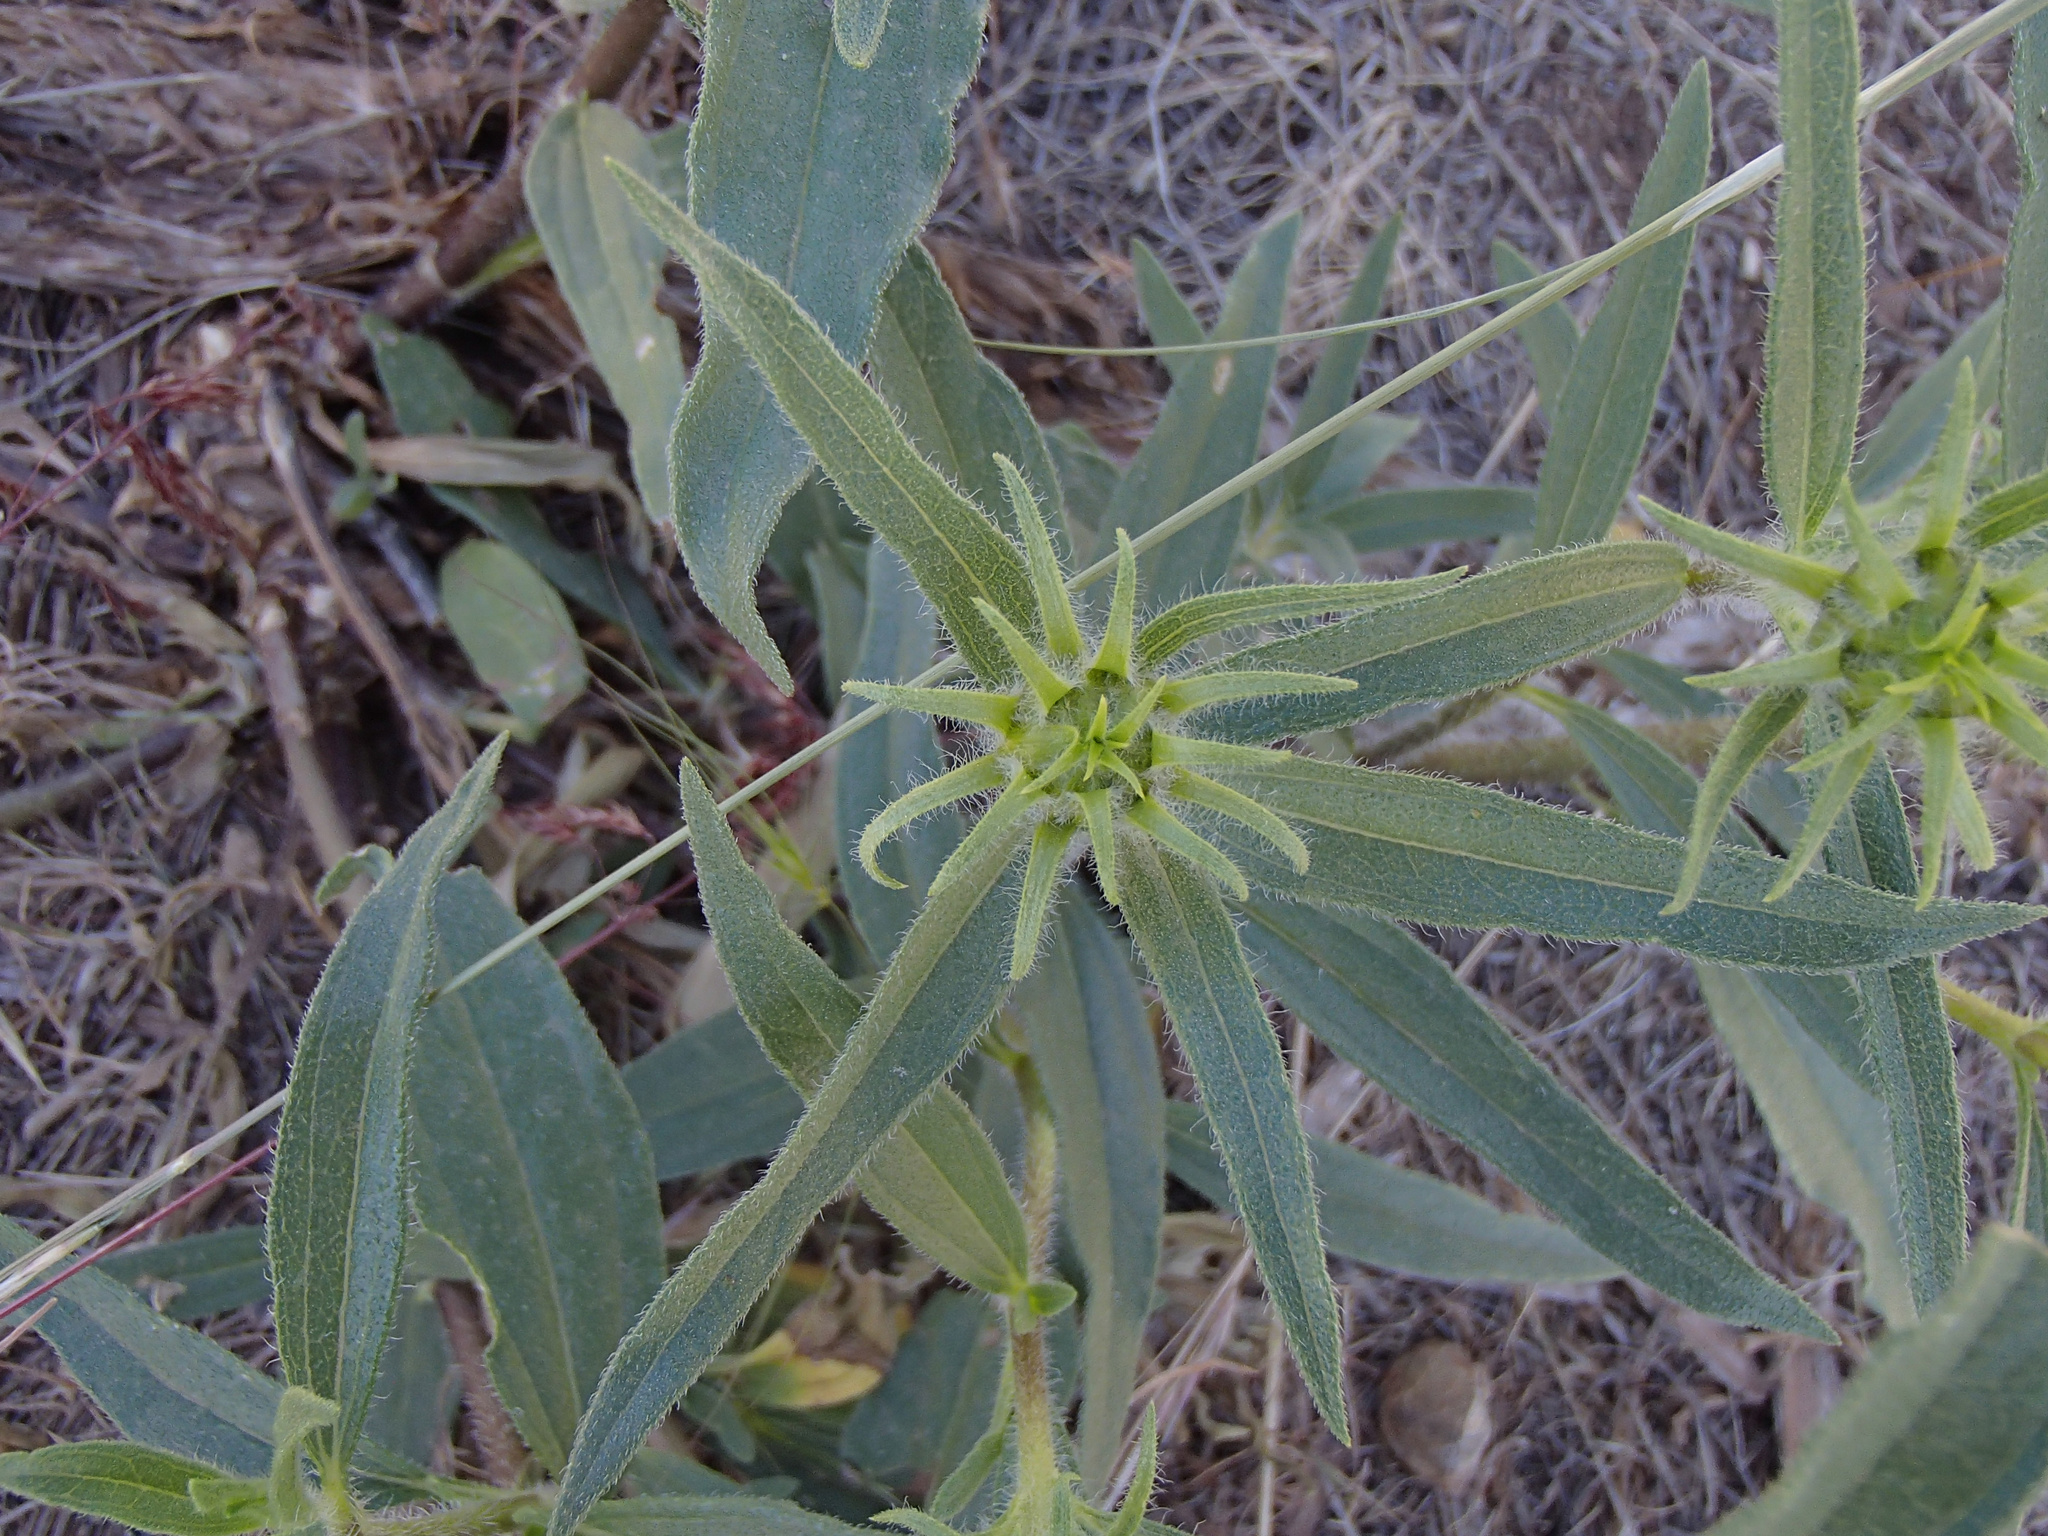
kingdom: Plantae
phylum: Tracheophyta
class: Magnoliopsida
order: Asterales
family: Asteraceae
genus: Helianthus
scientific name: Helianthus cusickii
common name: Cusick's sunflower
